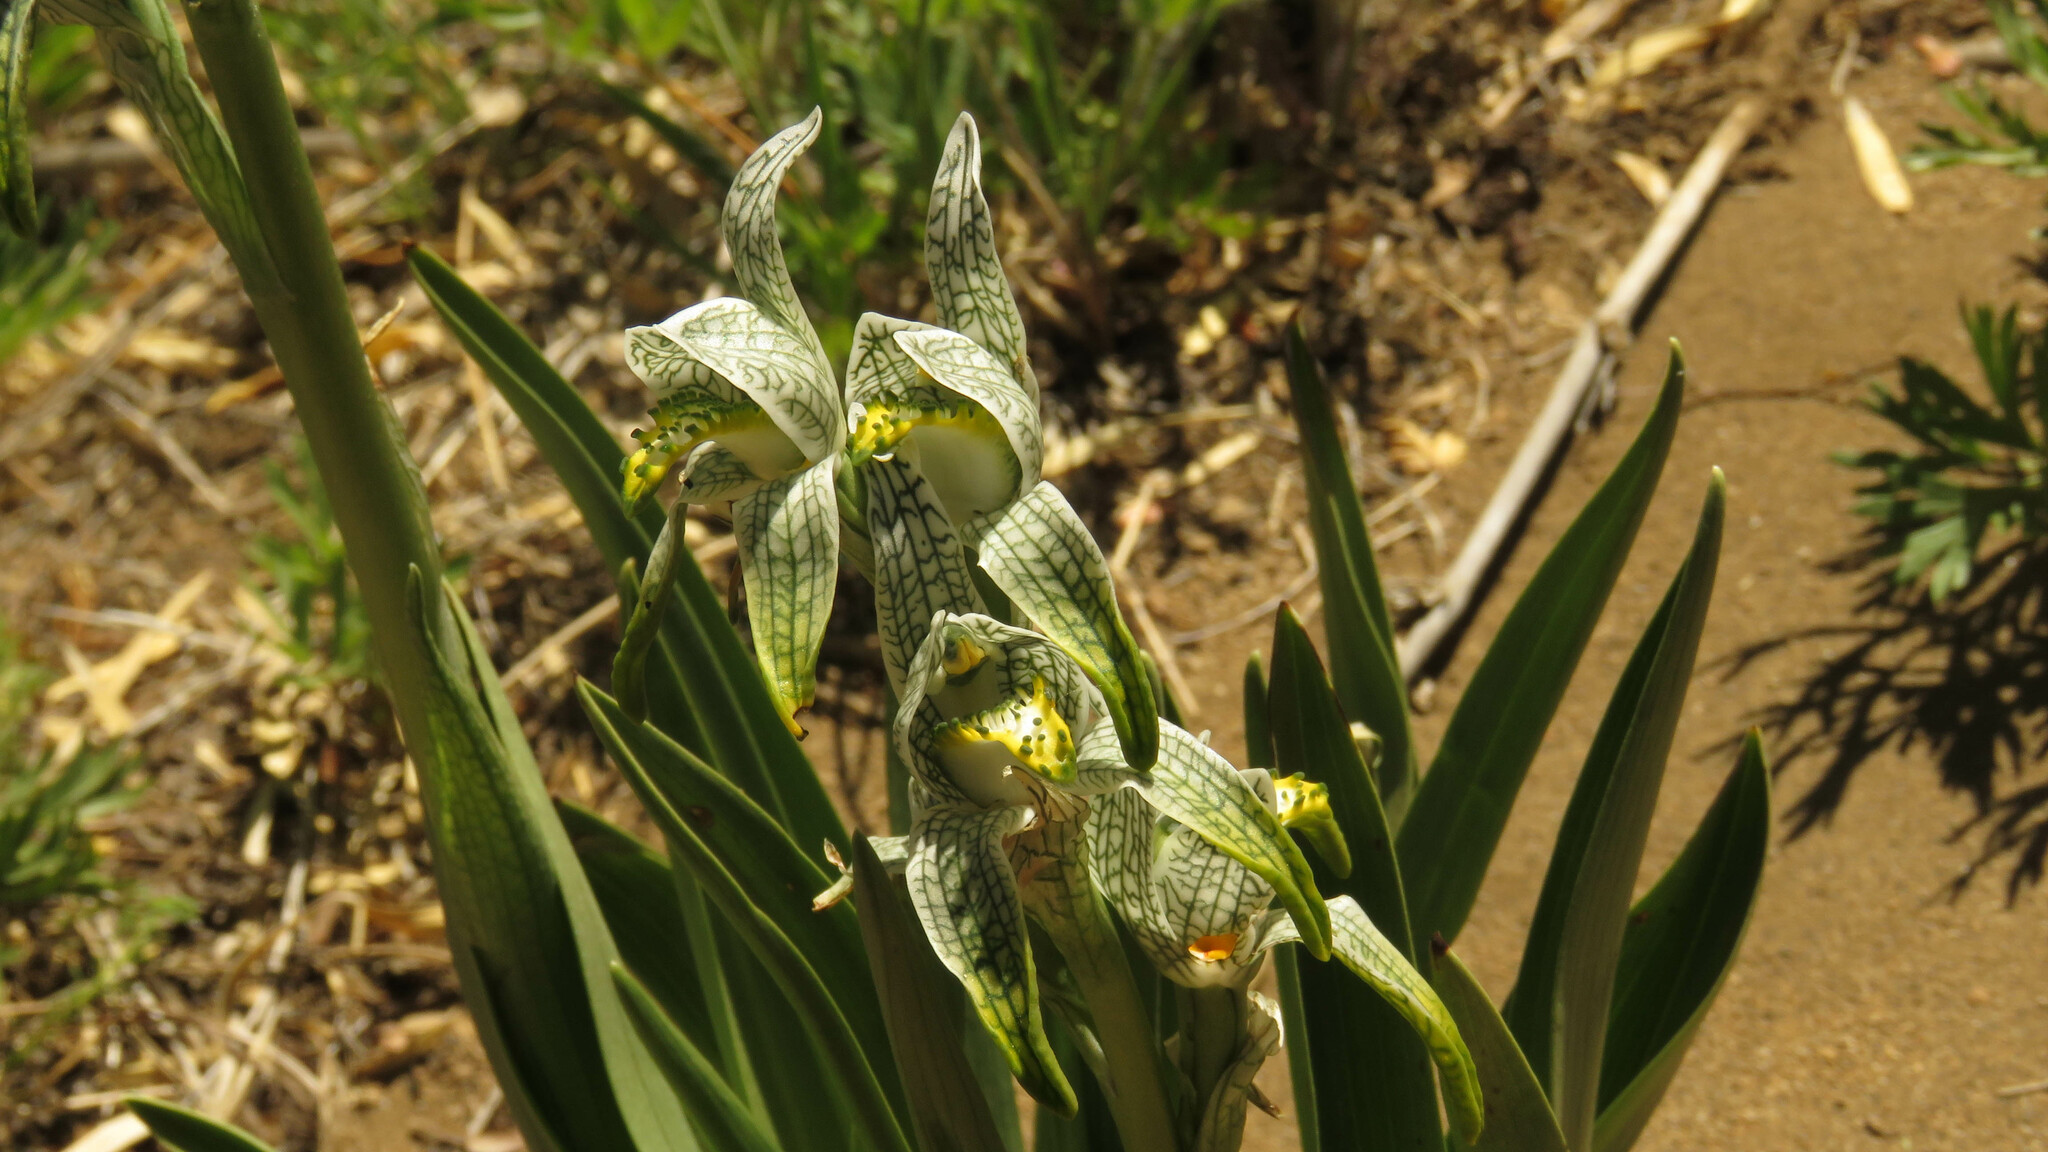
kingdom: Plantae
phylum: Tracheophyta
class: Liliopsida
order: Asparagales
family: Orchidaceae
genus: Chloraea
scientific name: Chloraea magellanica
